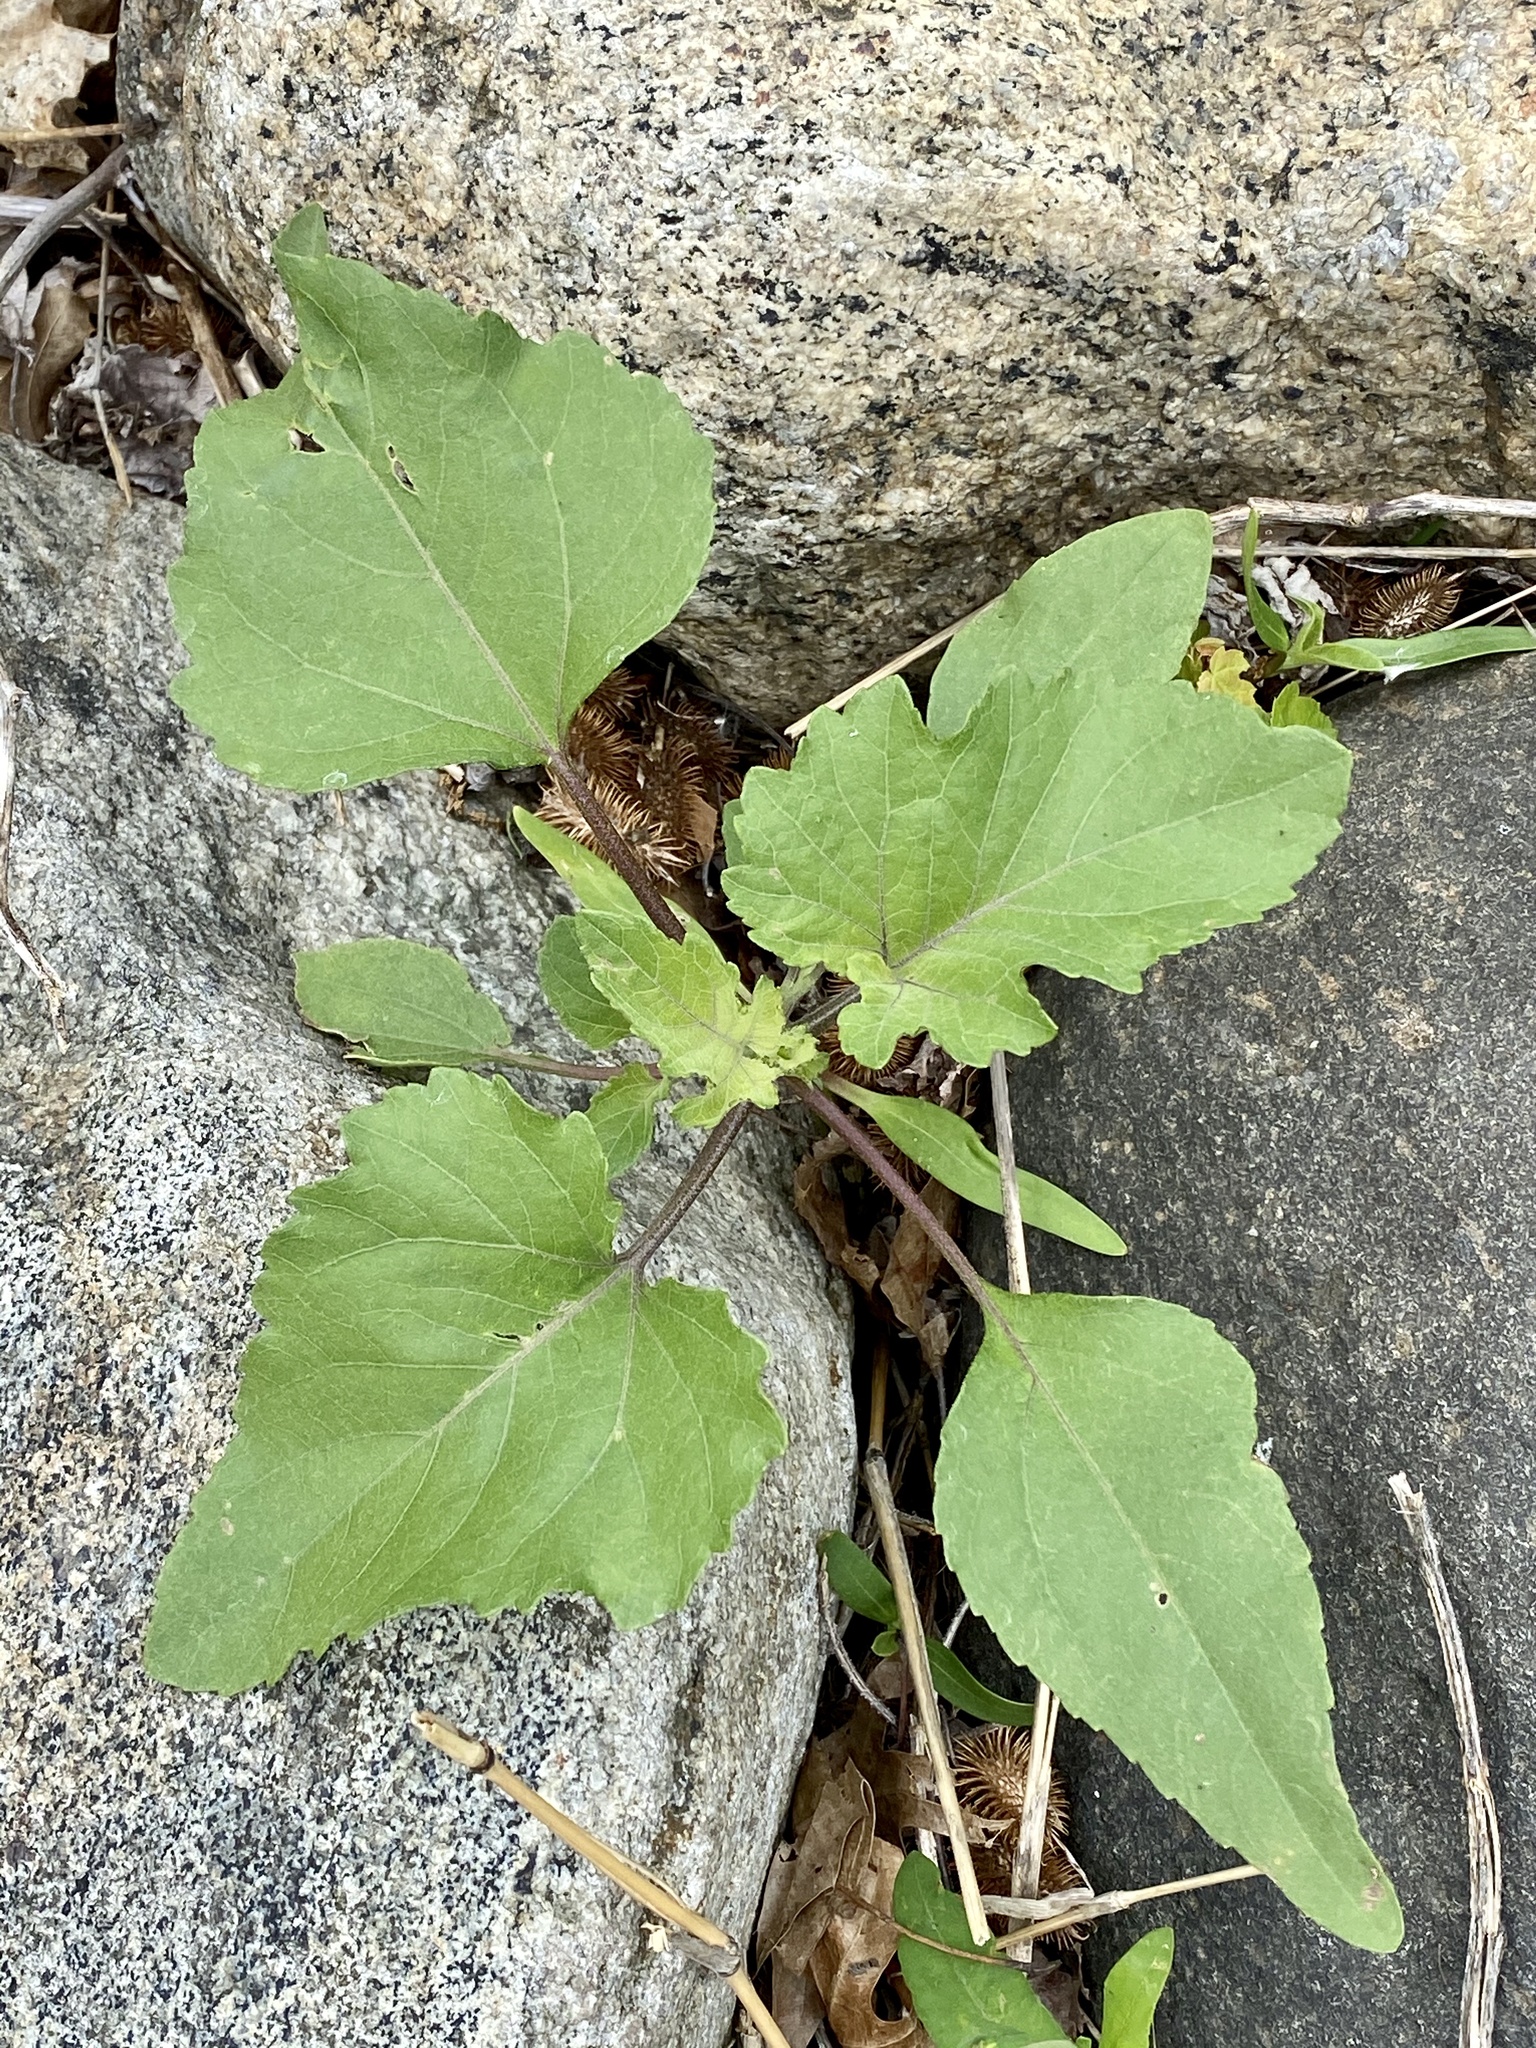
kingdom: Plantae
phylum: Tracheophyta
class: Magnoliopsida
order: Asterales
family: Asteraceae
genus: Xanthium
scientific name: Xanthium strumarium
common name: Rough cocklebur
